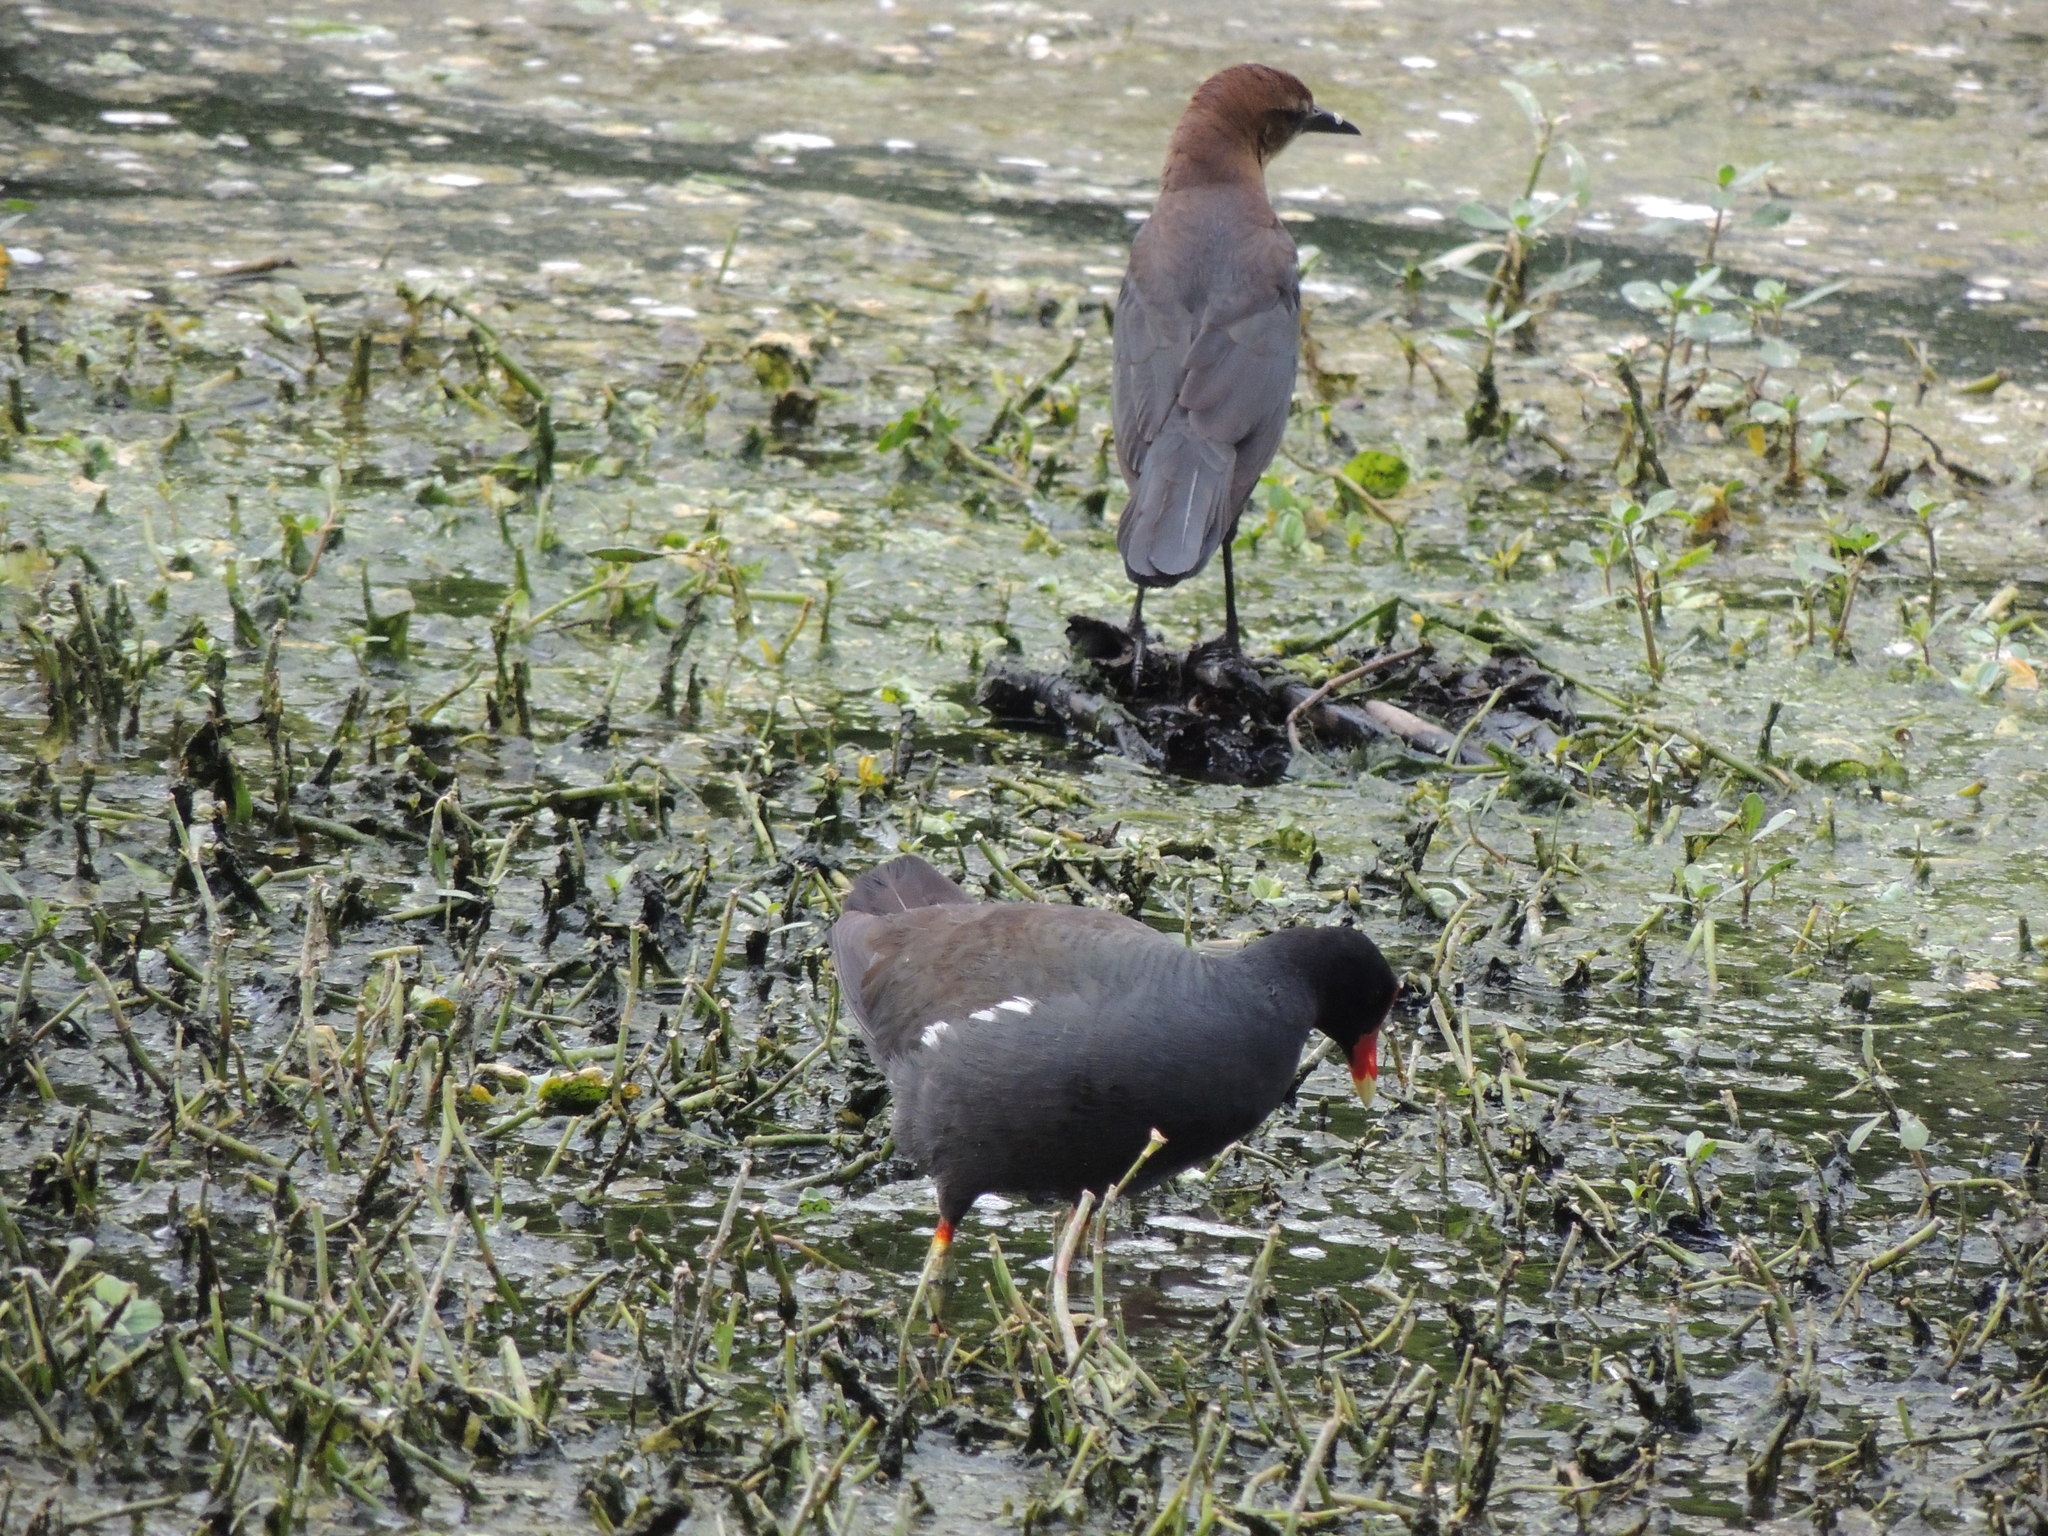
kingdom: Animalia
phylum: Chordata
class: Aves
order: Gruiformes
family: Rallidae
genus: Gallinula
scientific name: Gallinula chloropus
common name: Common moorhen
